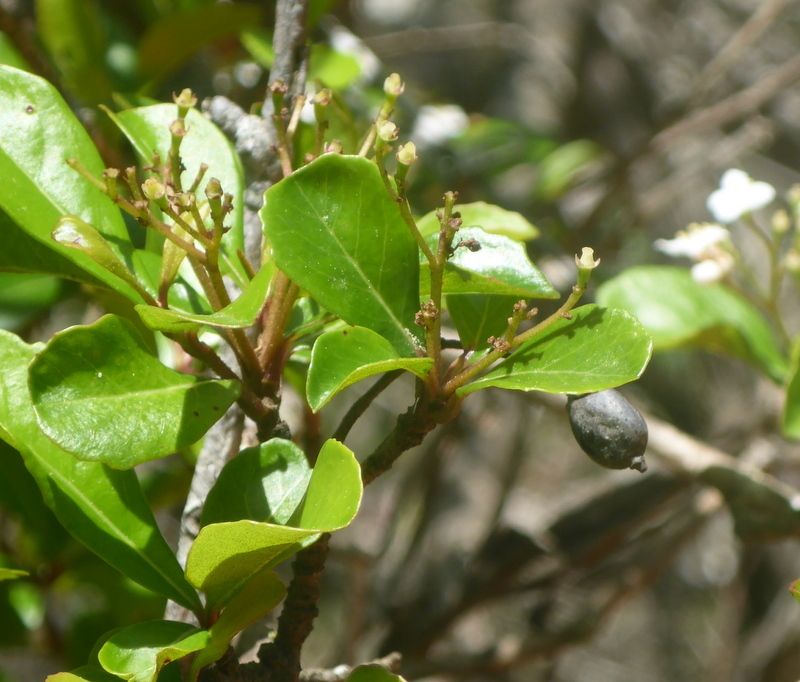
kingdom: Plantae
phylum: Tracheophyta
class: Magnoliopsida
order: Dipsacales
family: Viburnaceae
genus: Viburnum
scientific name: Viburnum obovatum
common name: Walter's viburnum
